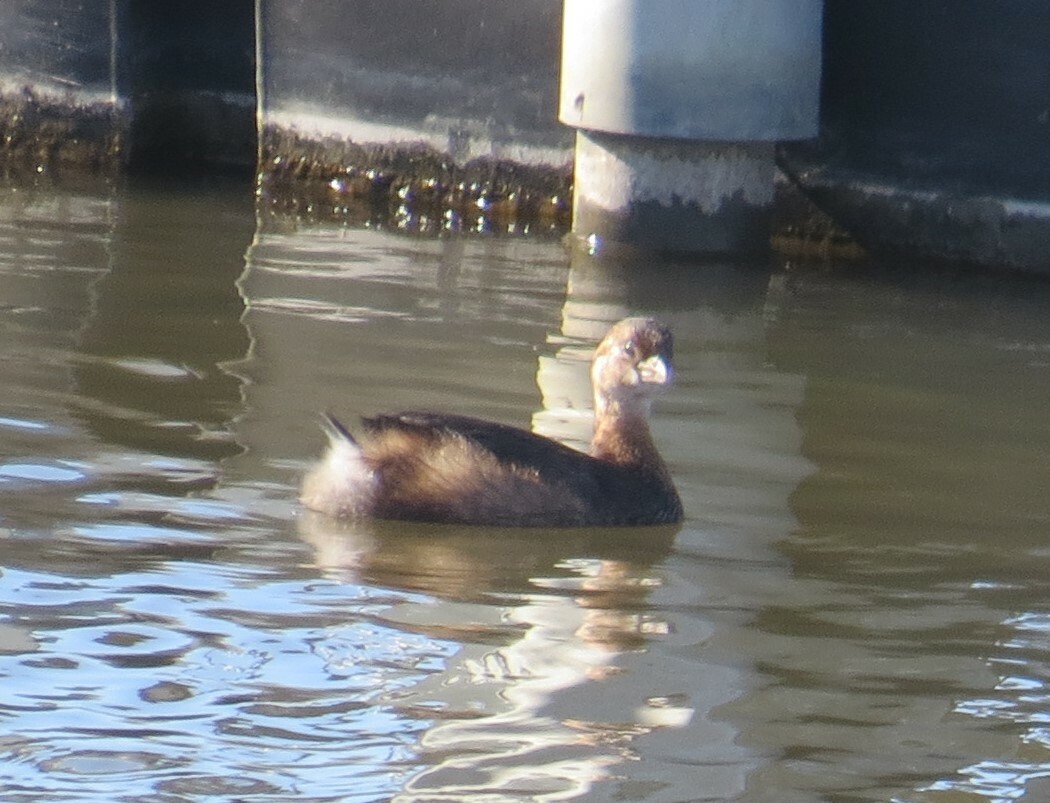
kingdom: Animalia
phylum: Chordata
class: Aves
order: Podicipediformes
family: Podicipedidae
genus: Podilymbus
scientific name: Podilymbus podiceps
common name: Pied-billed grebe
